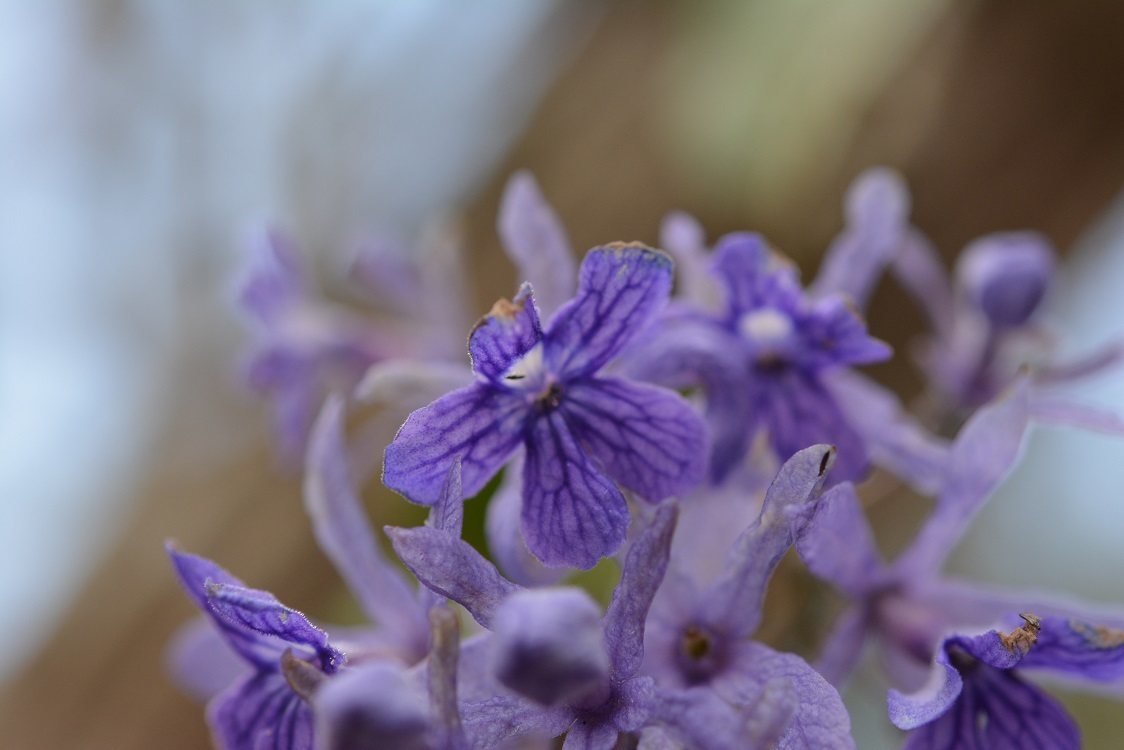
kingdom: Plantae
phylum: Tracheophyta
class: Magnoliopsida
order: Lamiales
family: Verbenaceae
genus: Petrea
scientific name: Petrea volubilis
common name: Queen's-wreath
